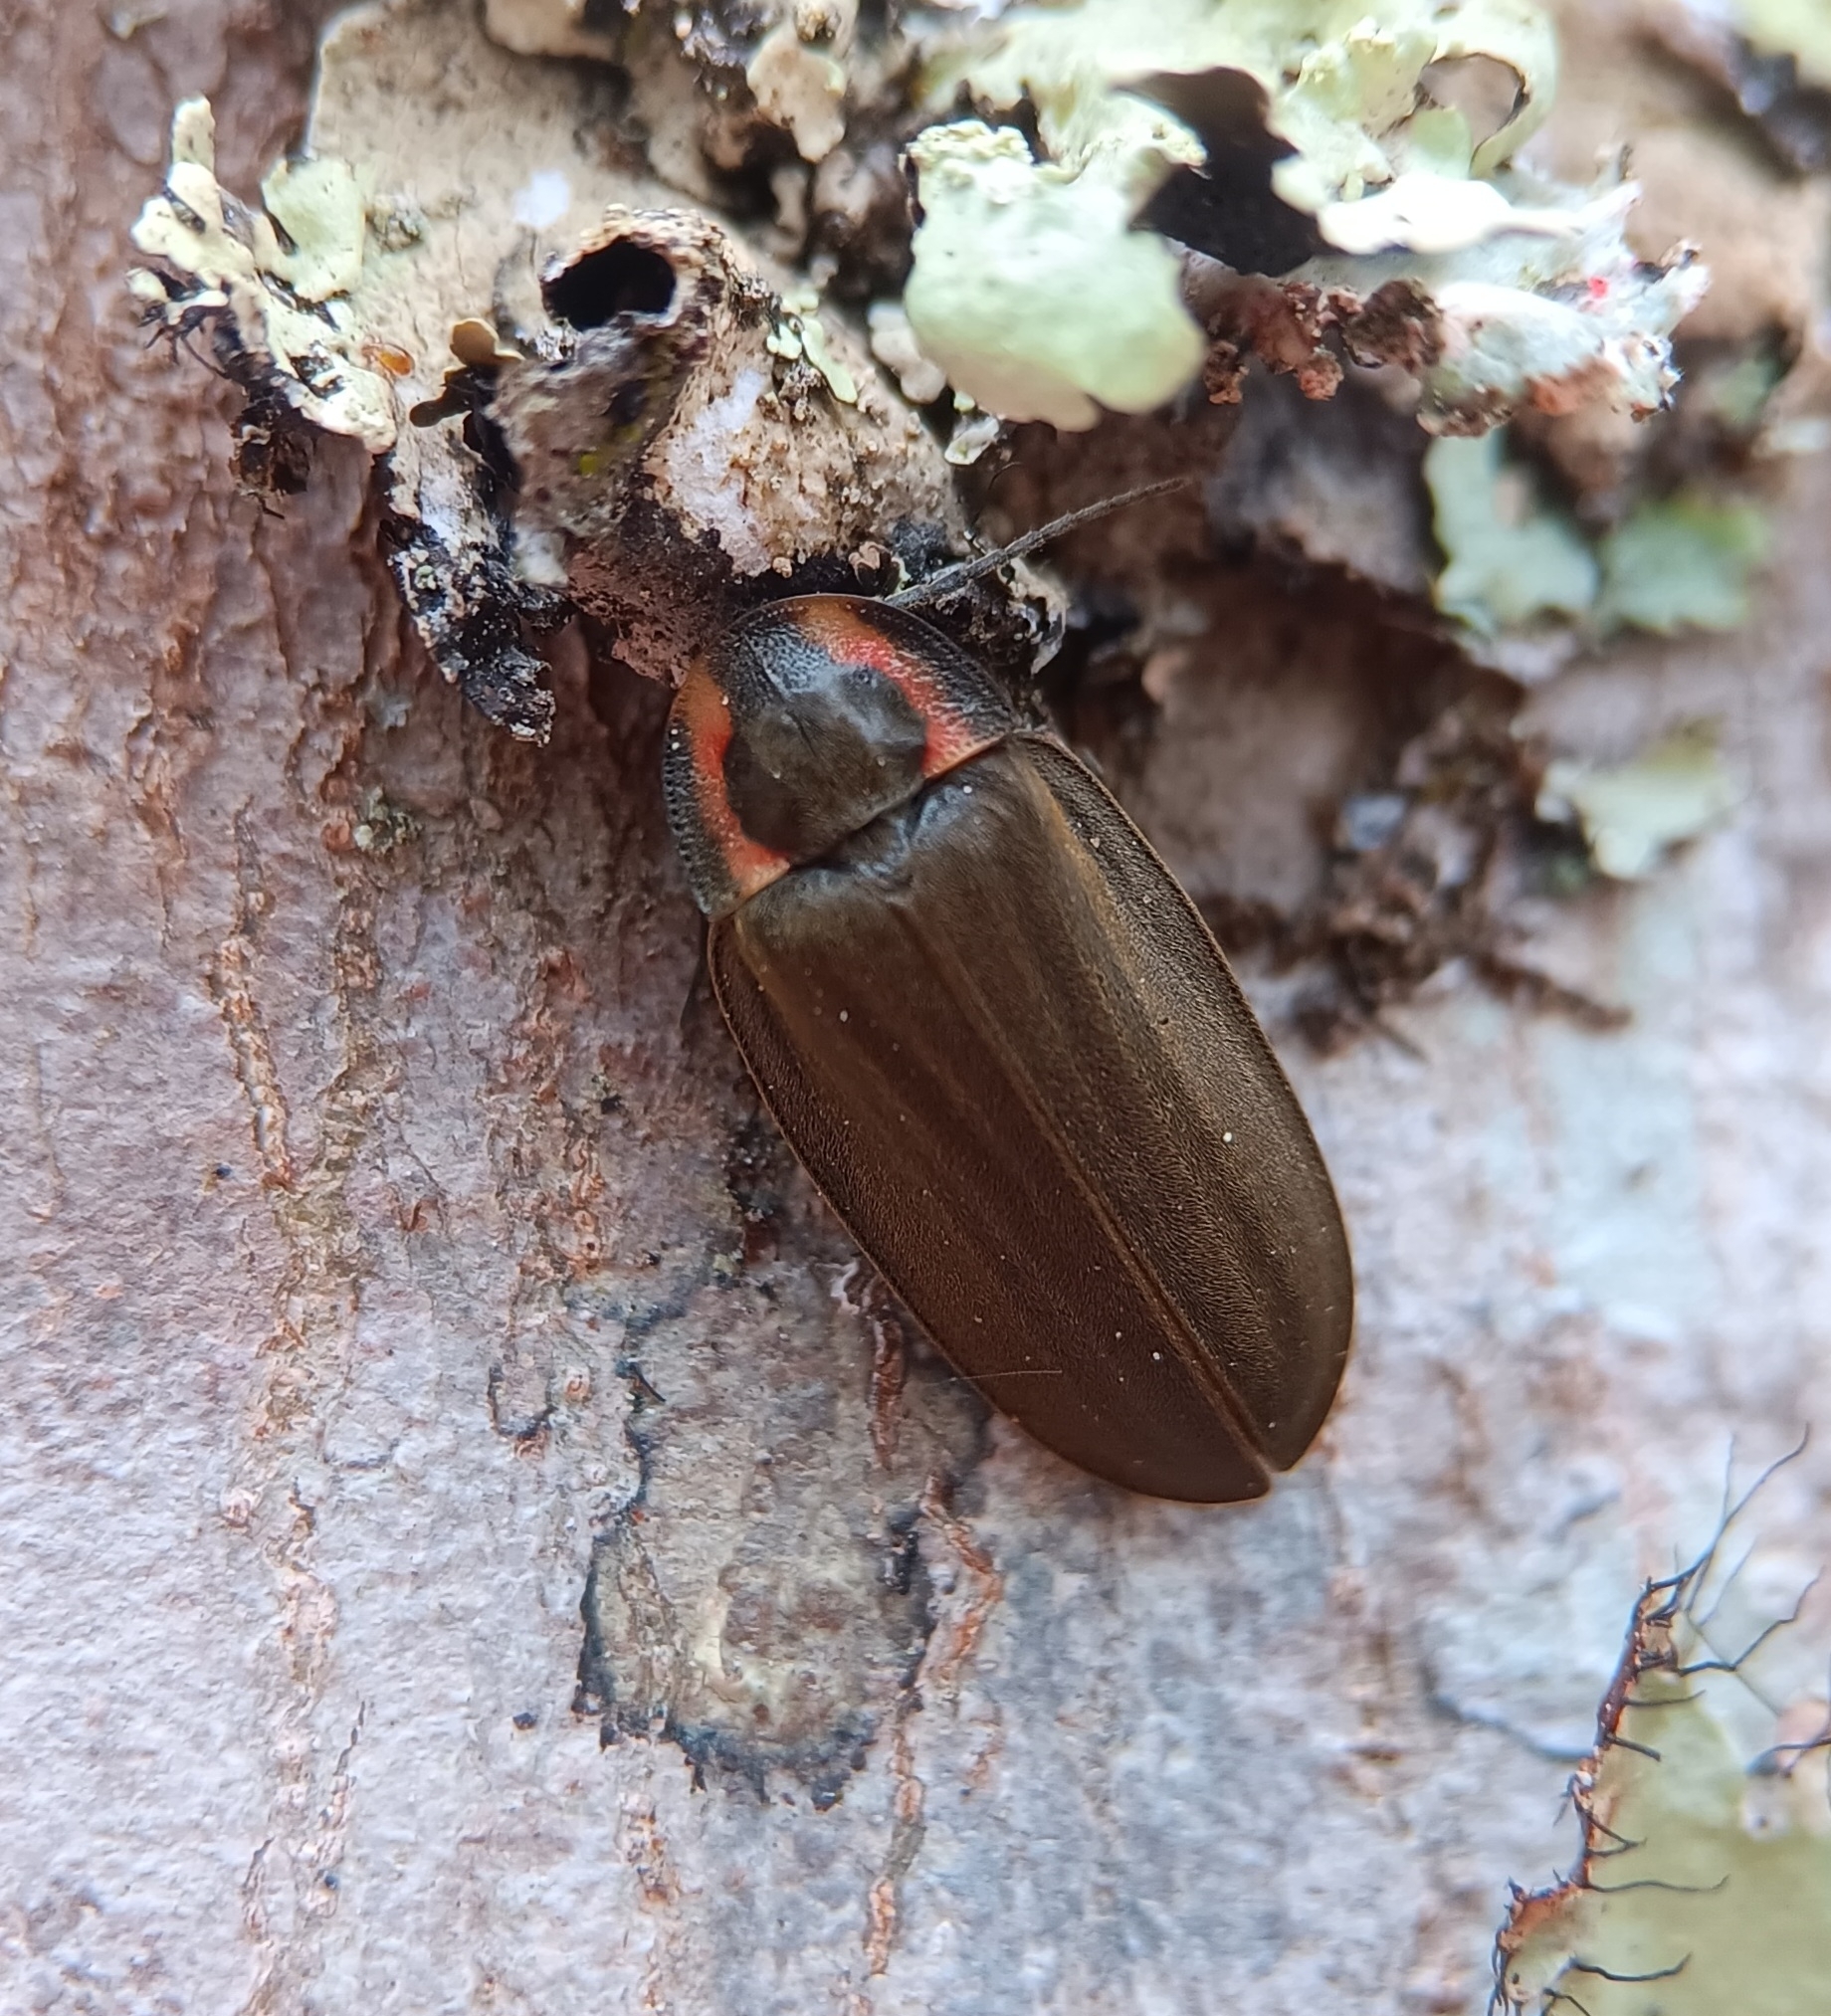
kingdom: Animalia
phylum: Arthropoda
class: Insecta
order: Coleoptera
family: Lampyridae
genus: Photinus
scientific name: Photinus corrusca
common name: Winter firefly
